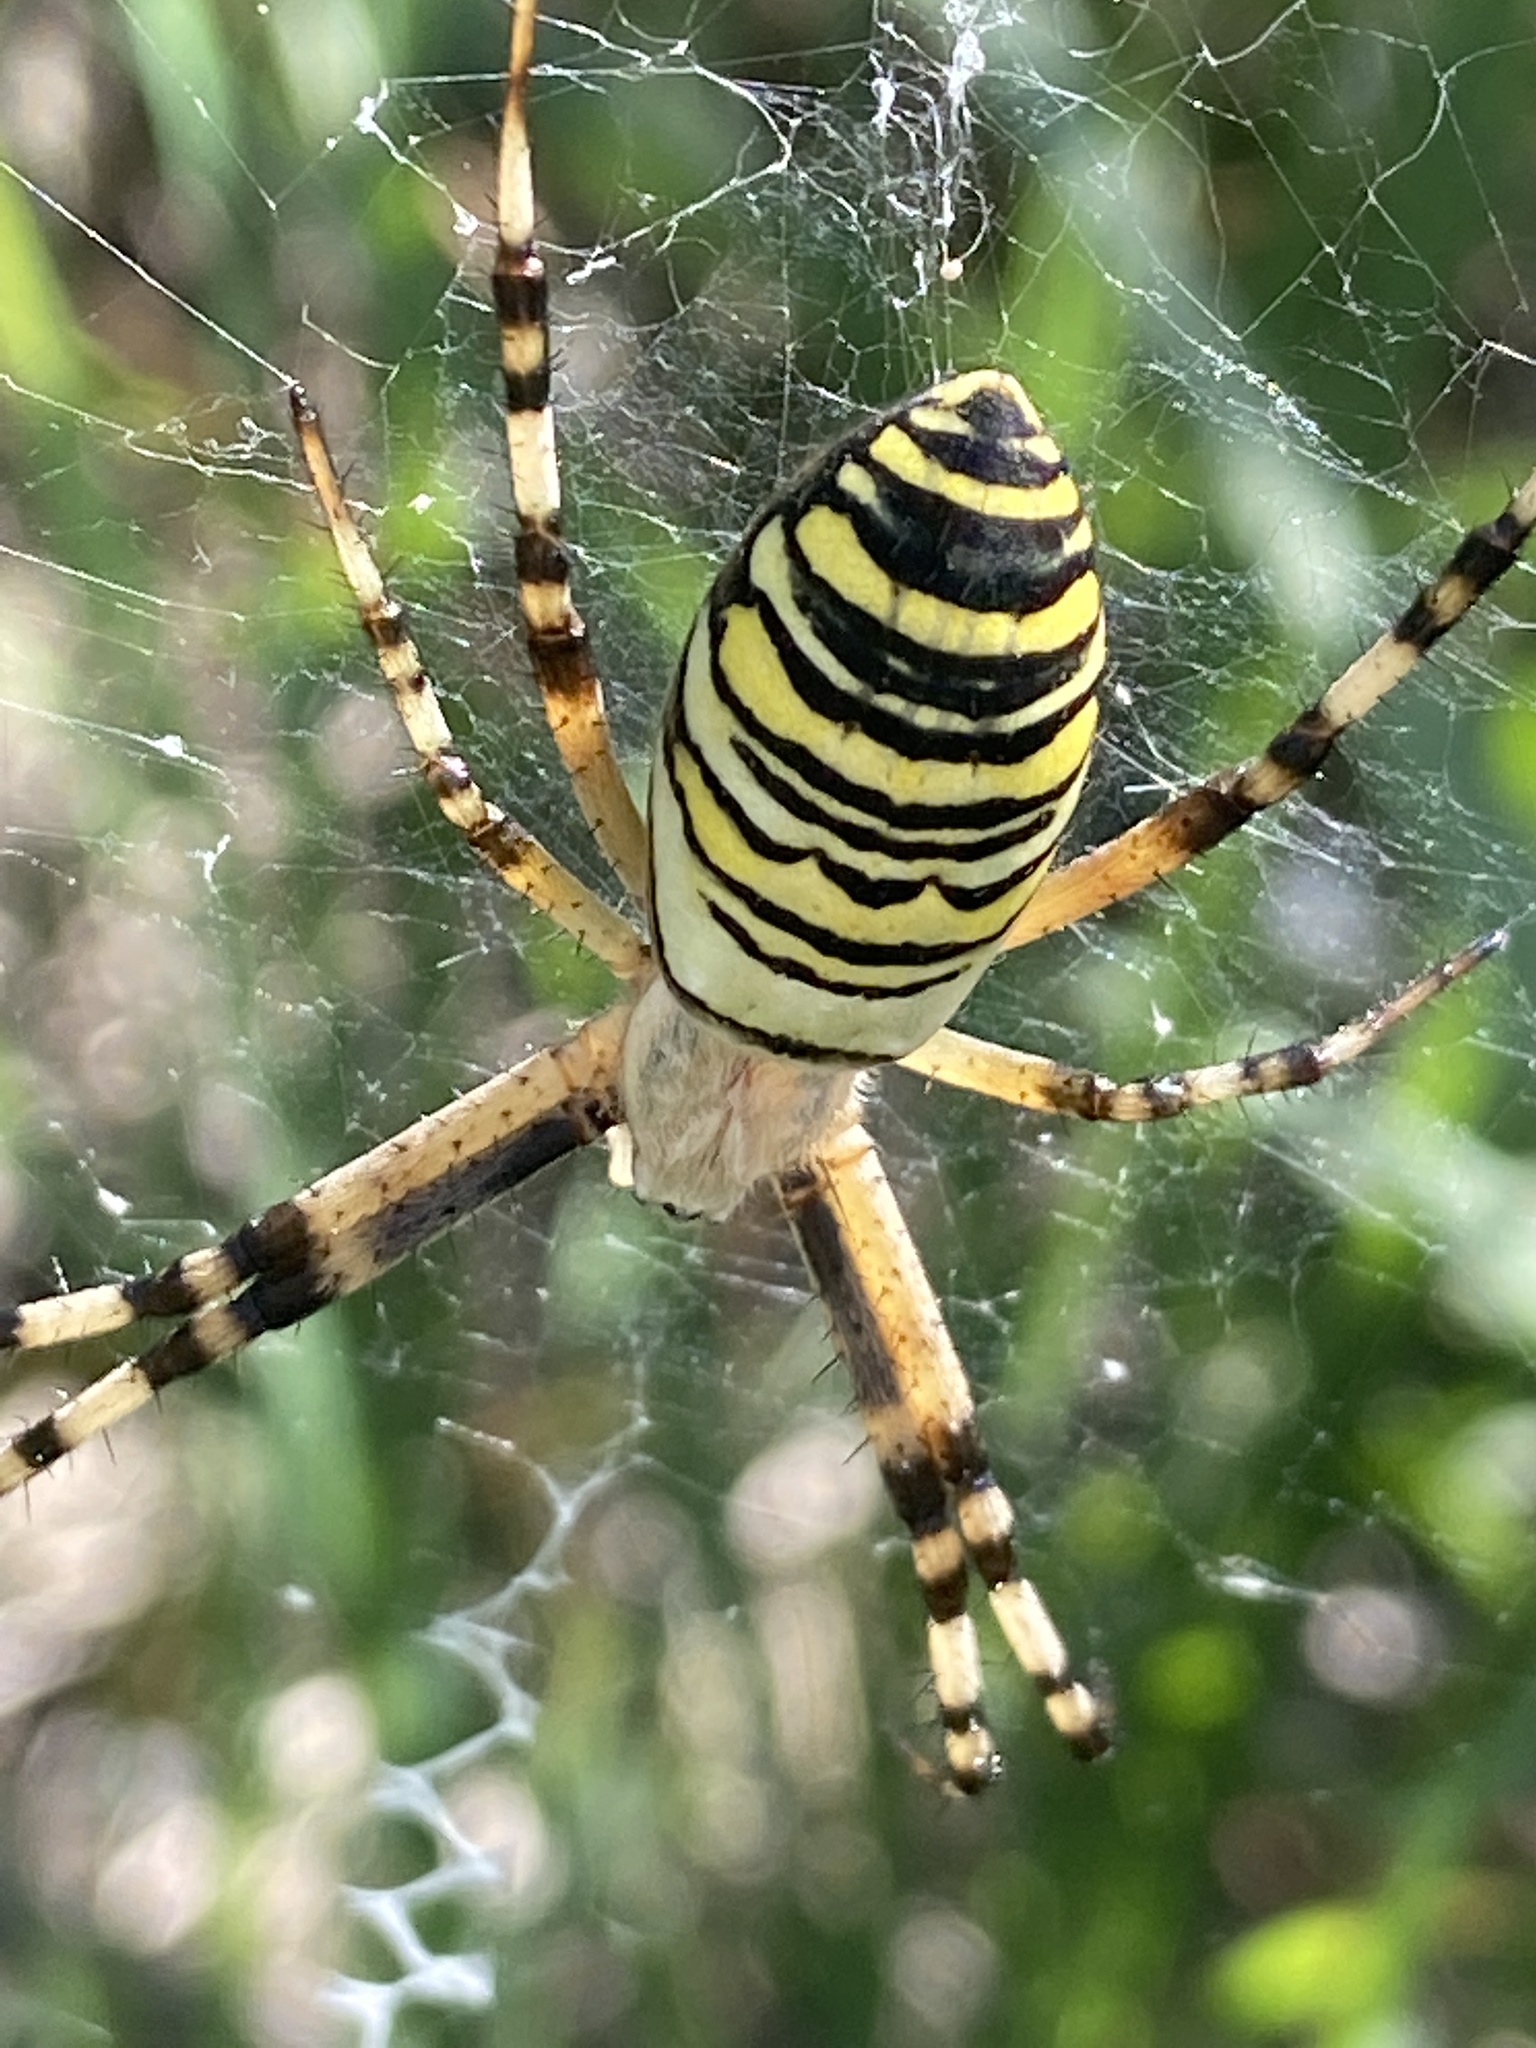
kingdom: Animalia
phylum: Arthropoda
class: Arachnida
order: Araneae
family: Araneidae
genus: Argiope
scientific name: Argiope bruennichi
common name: Wasp spider
